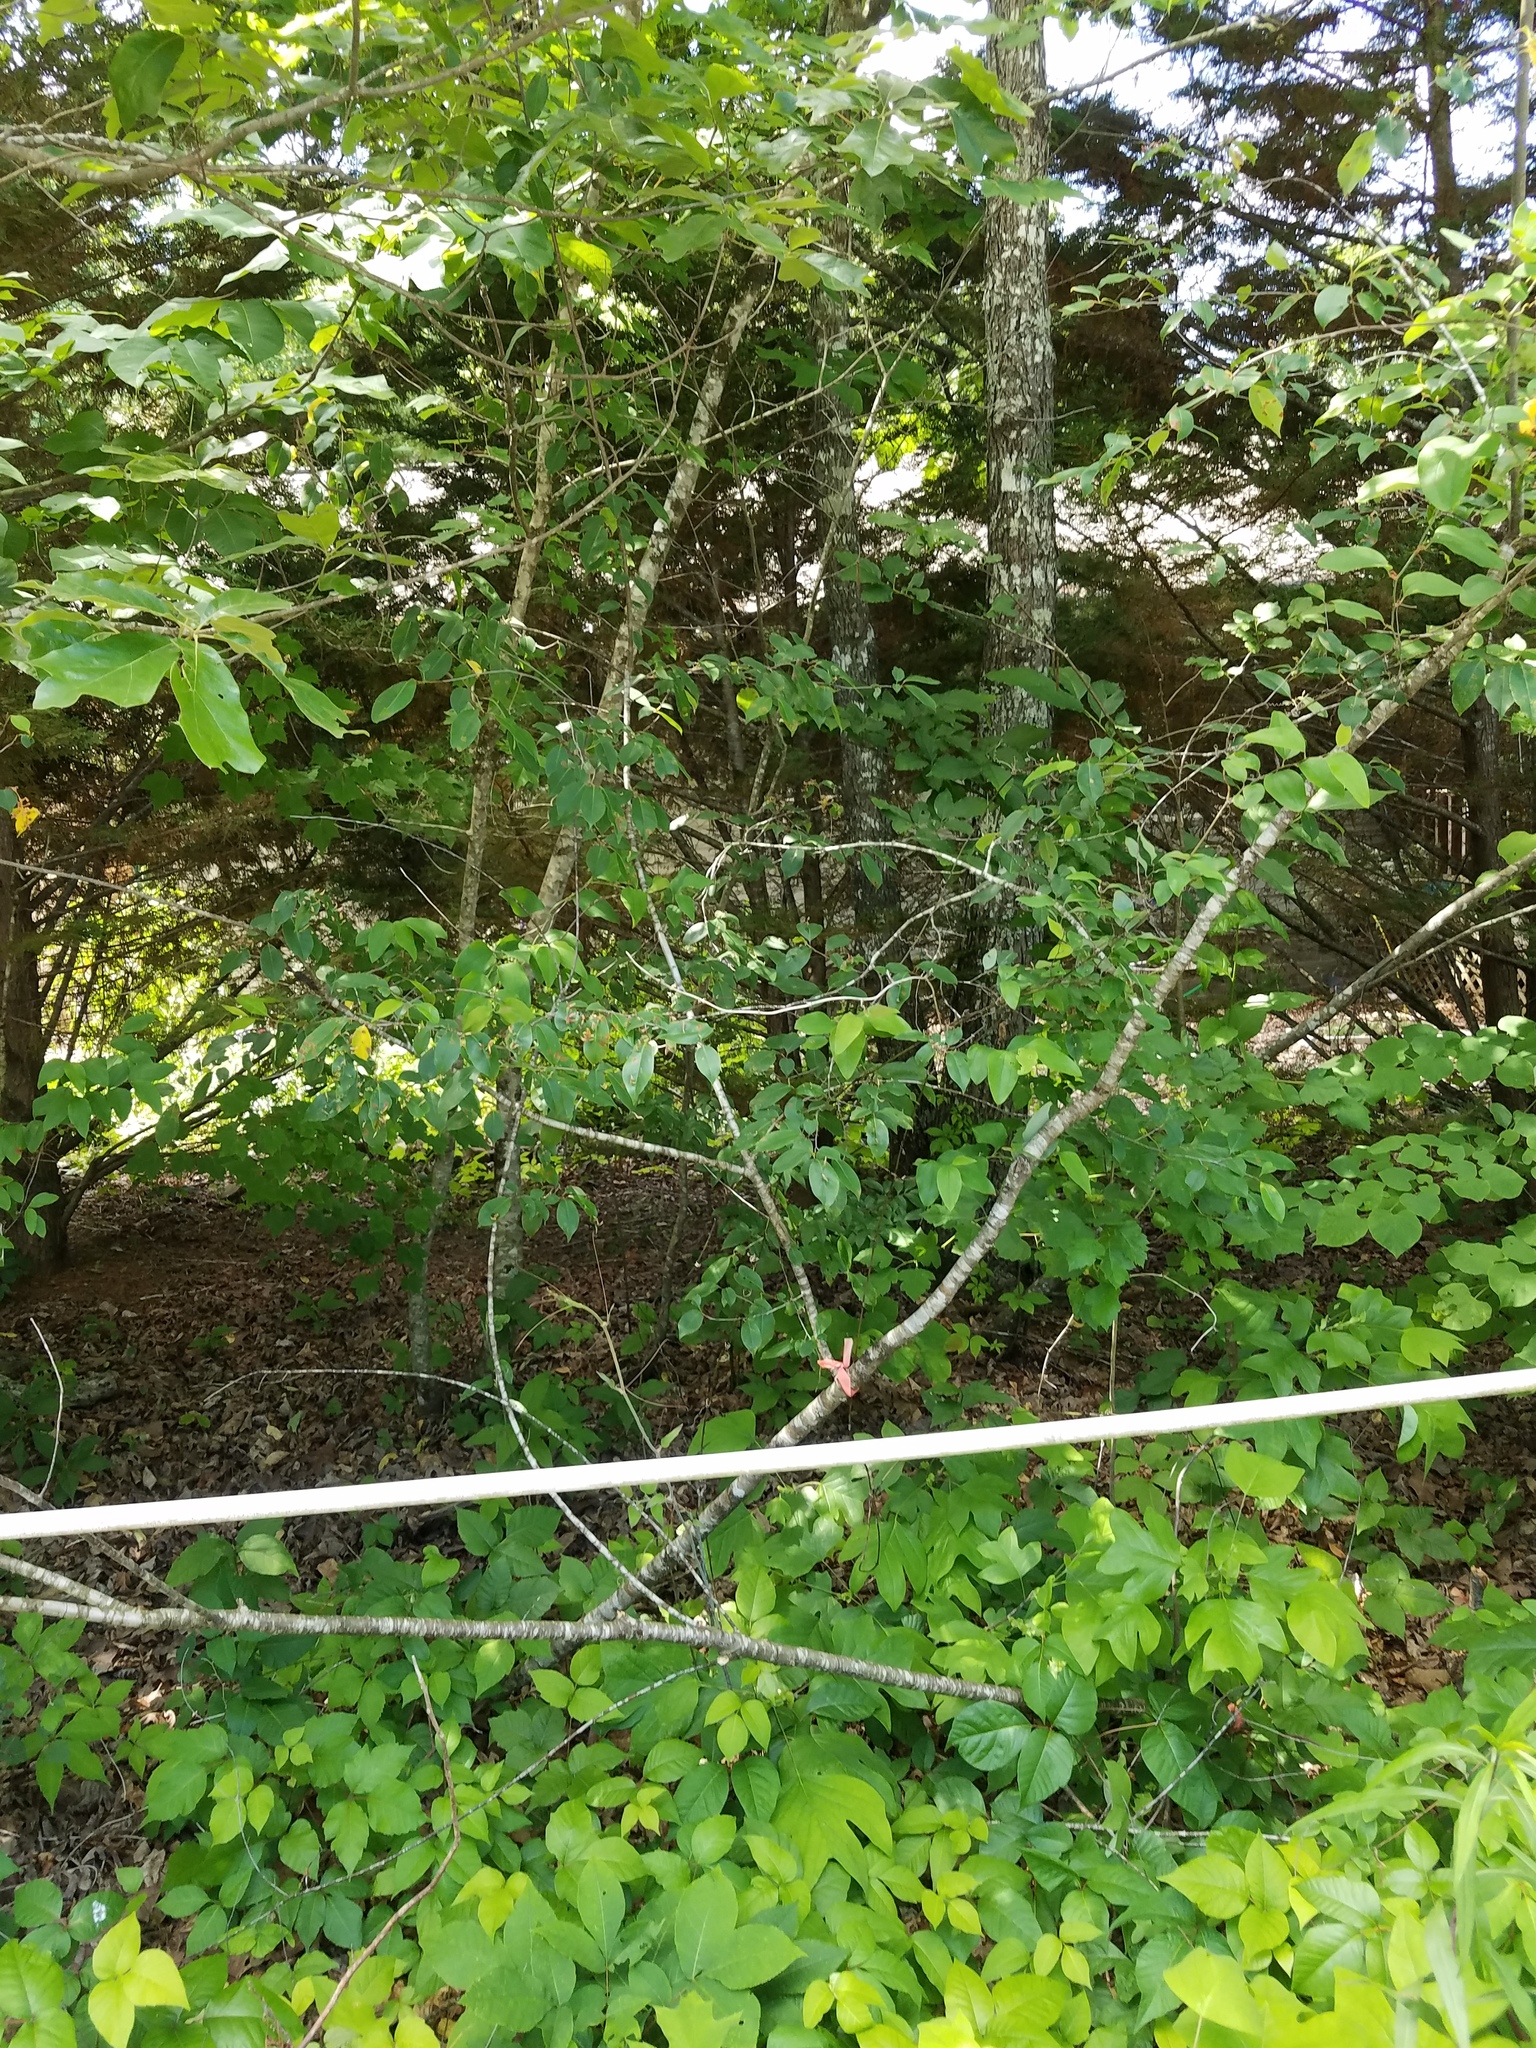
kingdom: Plantae
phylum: Tracheophyta
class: Magnoliopsida
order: Rosales
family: Rosaceae
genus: Prunus
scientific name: Prunus serotina
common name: Black cherry
